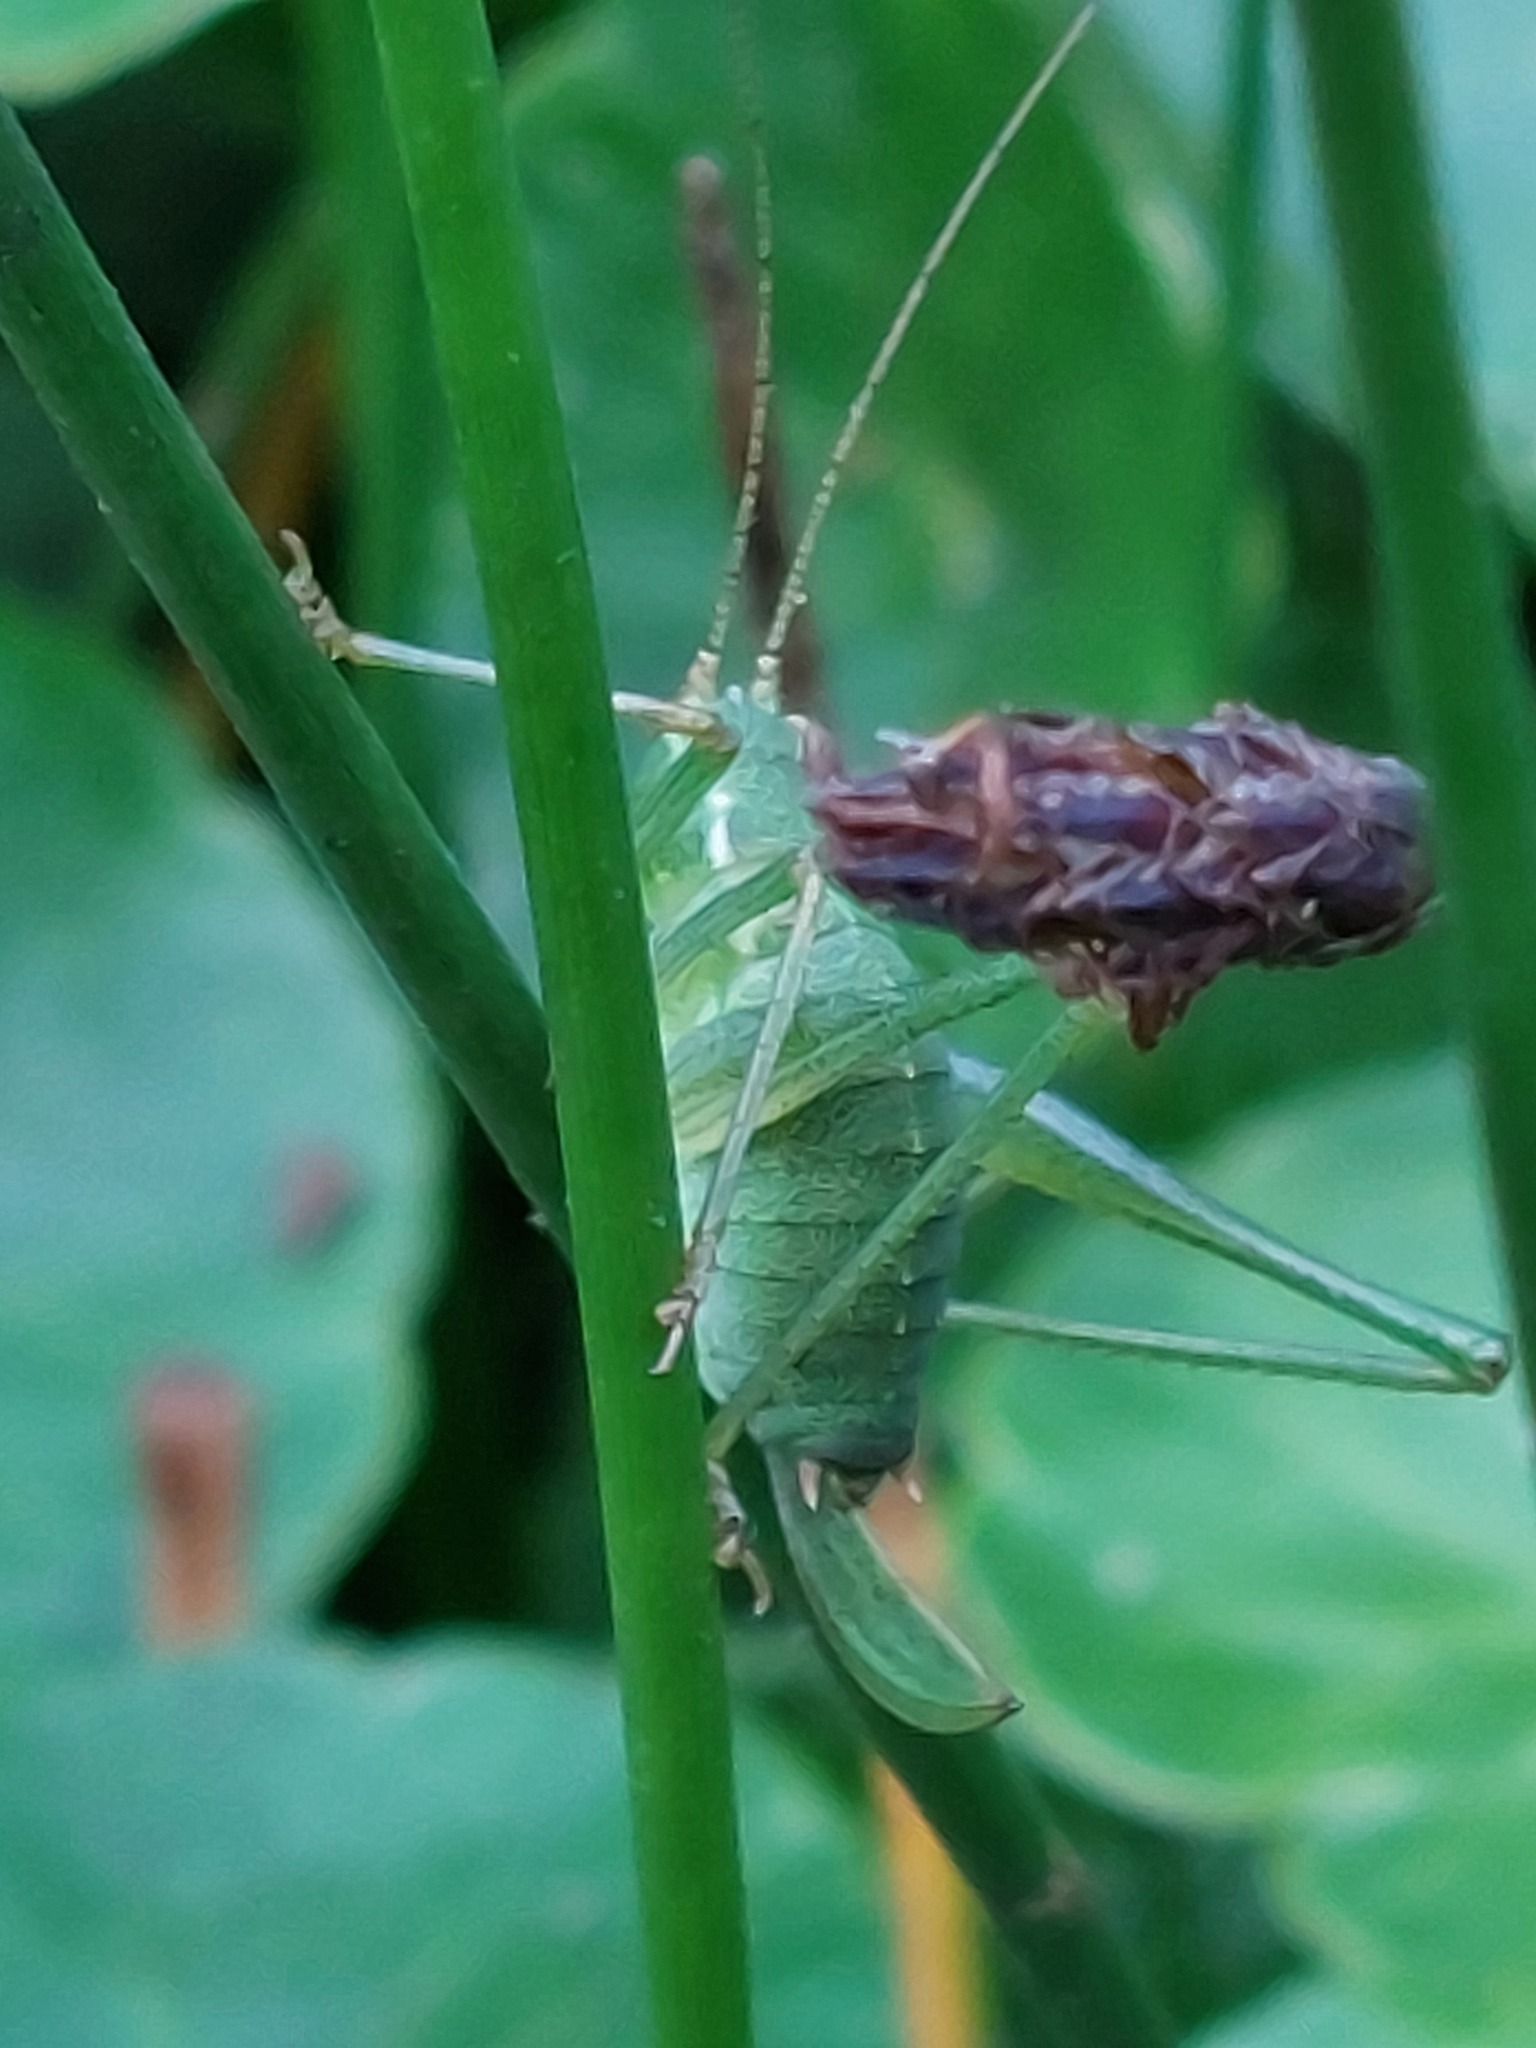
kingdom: Animalia
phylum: Arthropoda
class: Insecta
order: Orthoptera
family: Tettigoniidae
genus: Leptophyes
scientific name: Leptophyes punctatissima
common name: Speckled bush-cricket
